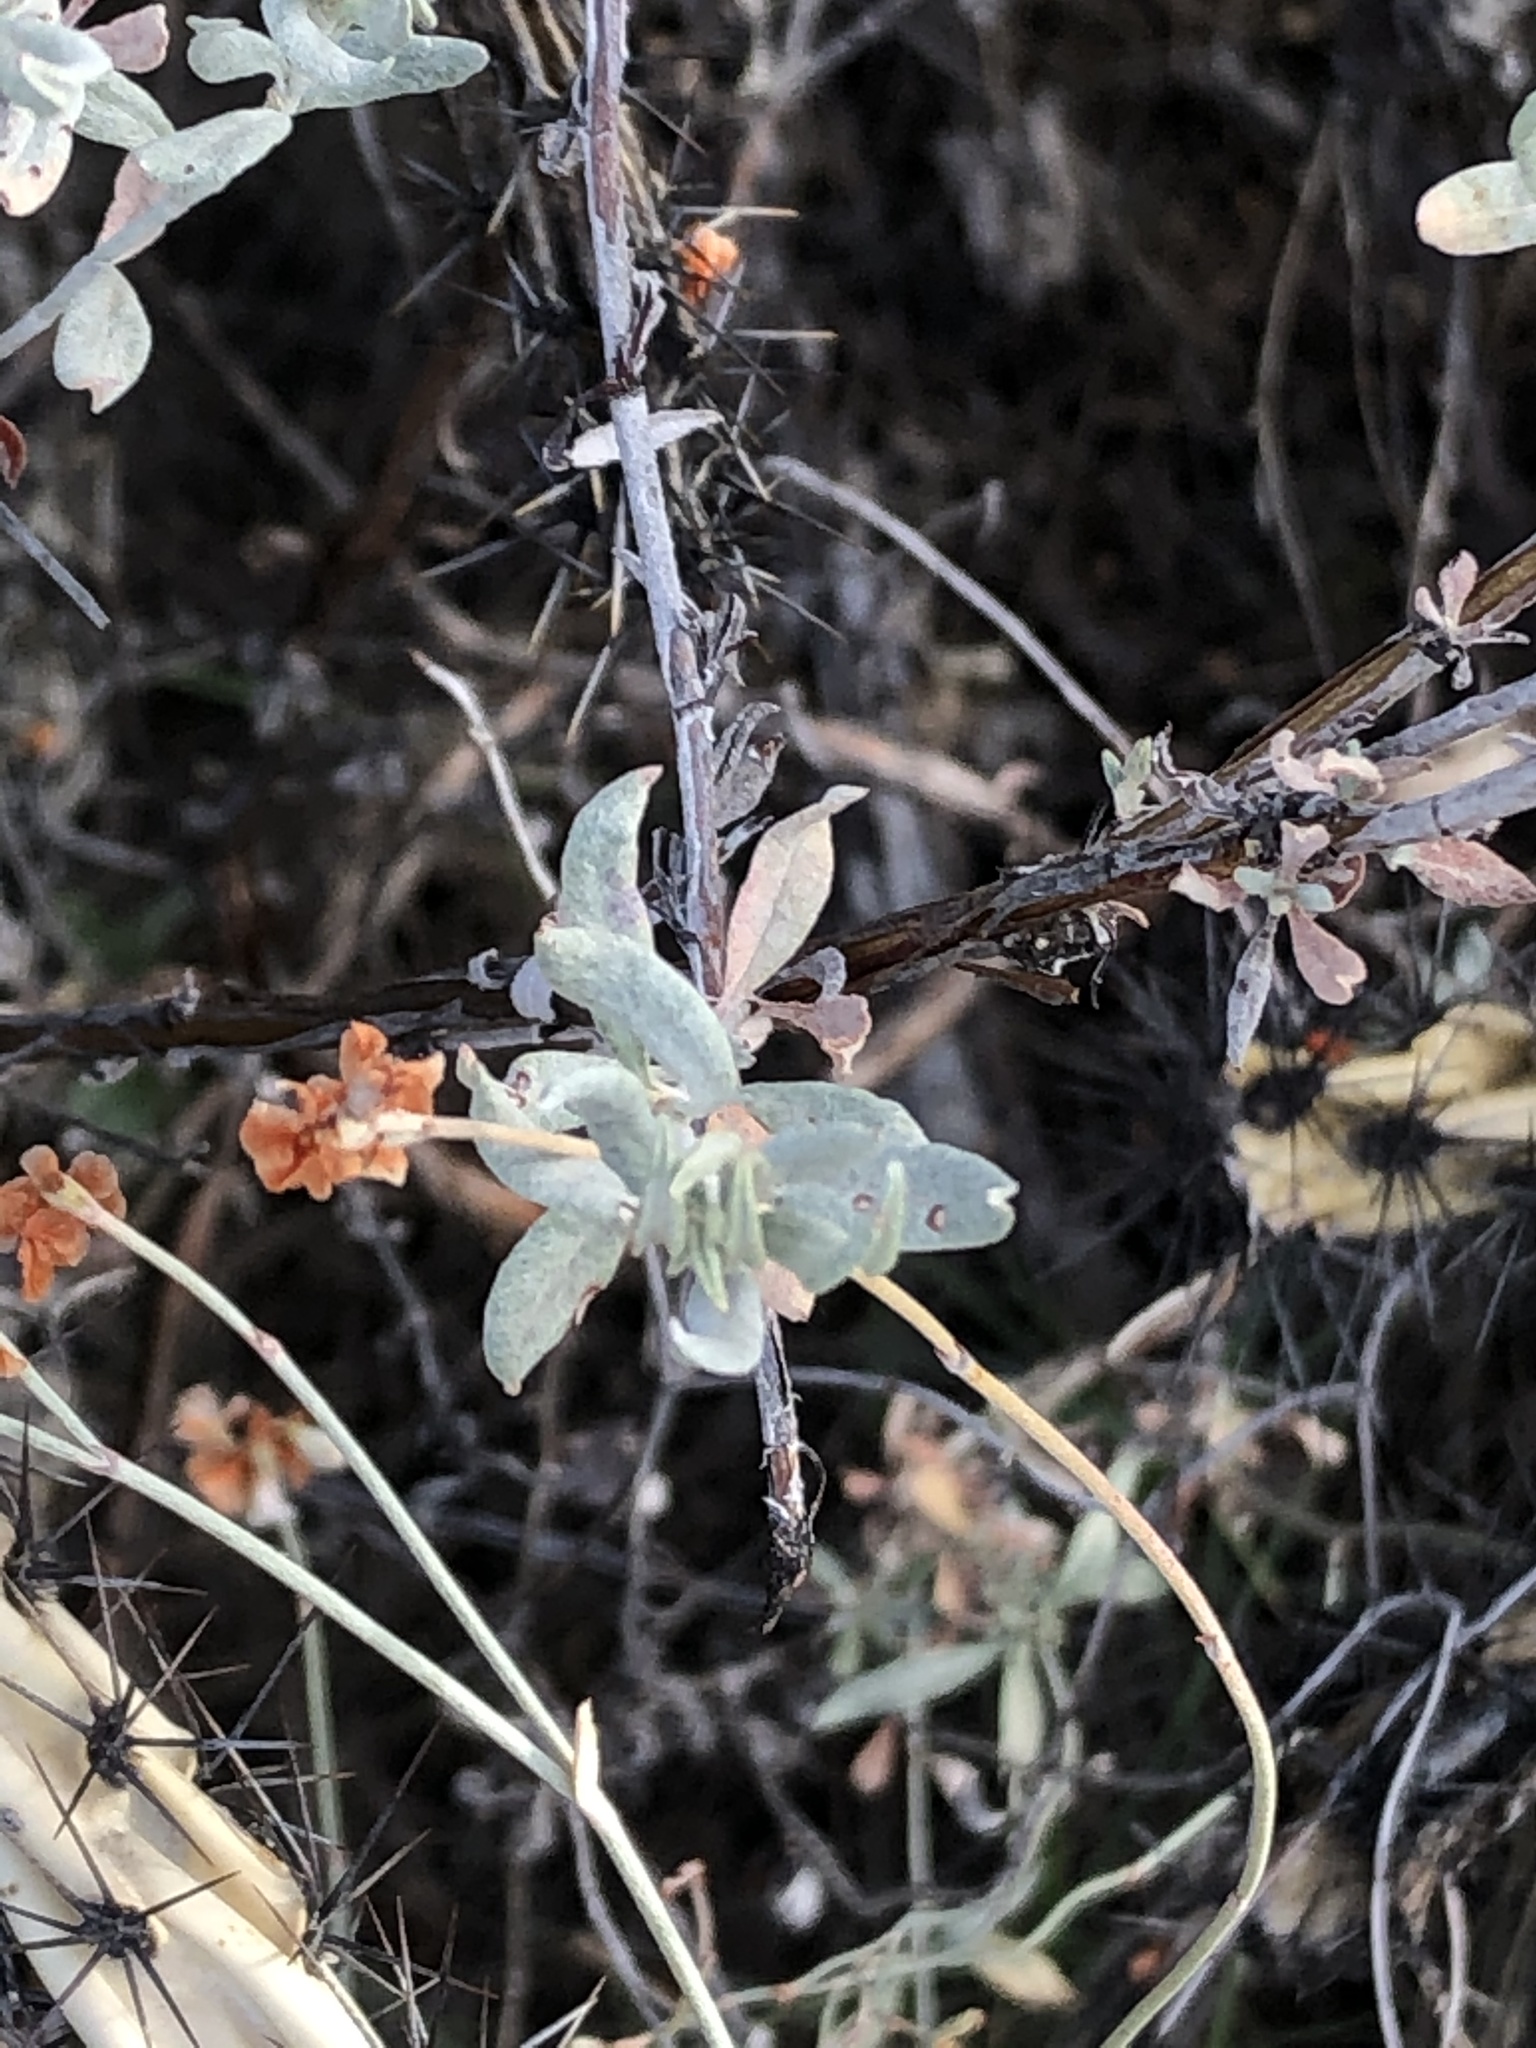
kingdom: Plantae
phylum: Tracheophyta
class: Magnoliopsida
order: Caryophyllales
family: Polygonaceae
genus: Eriogonum
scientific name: Eriogonum wrightii
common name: Bastard-sage
